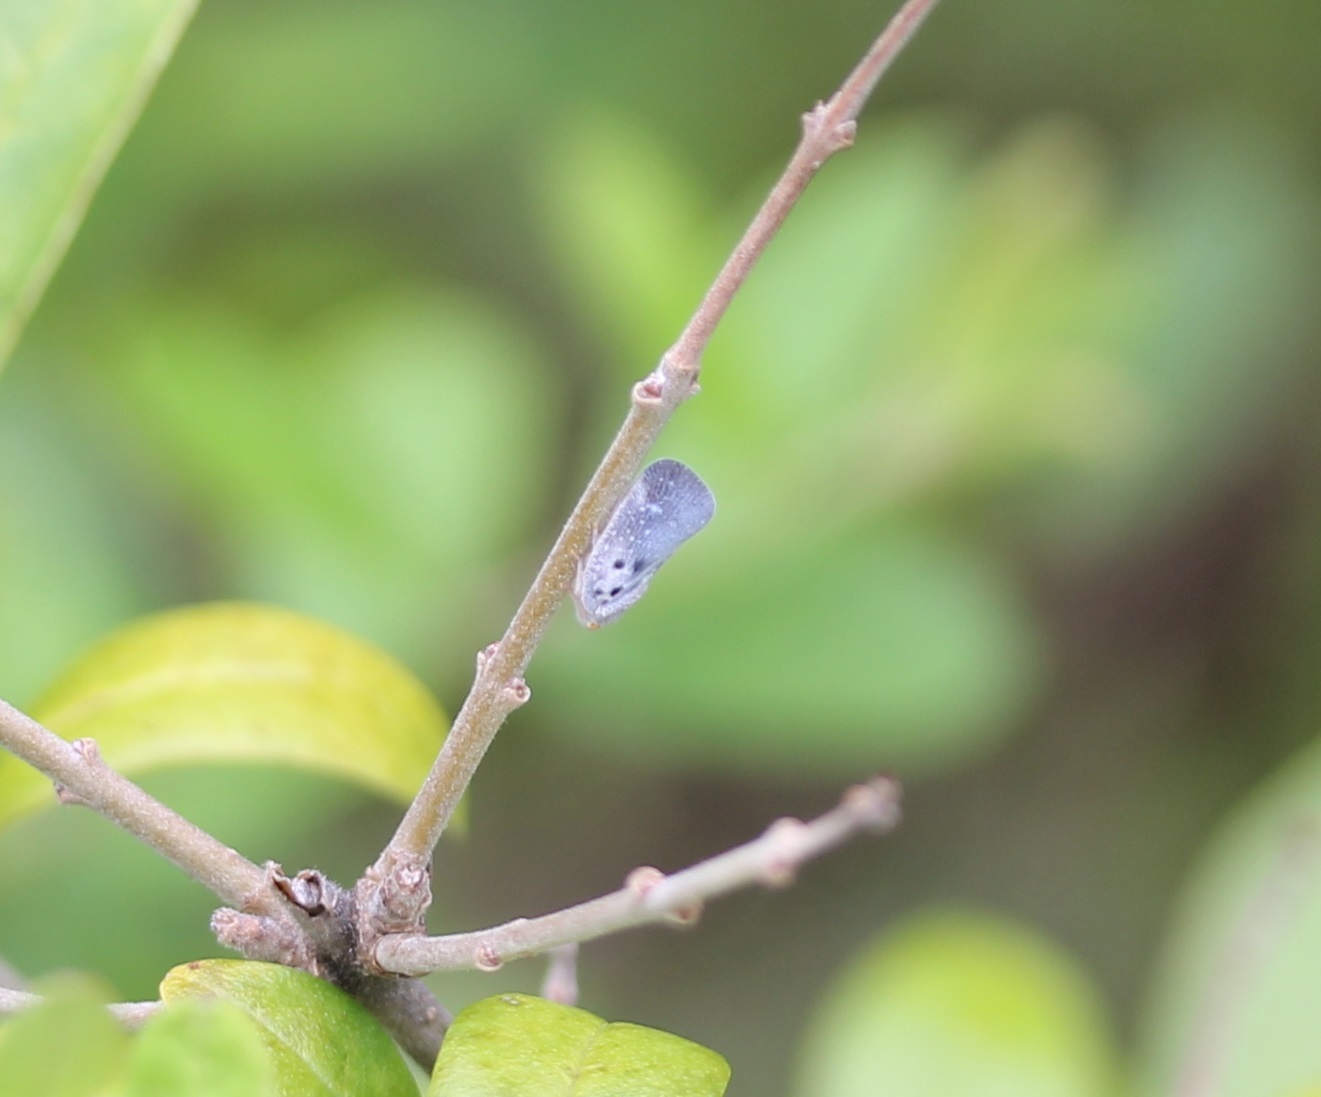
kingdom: Animalia
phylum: Arthropoda
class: Insecta
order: Hemiptera
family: Flatidae
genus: Metcalfa
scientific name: Metcalfa pruinosa
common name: Citrus flatid planthopper
